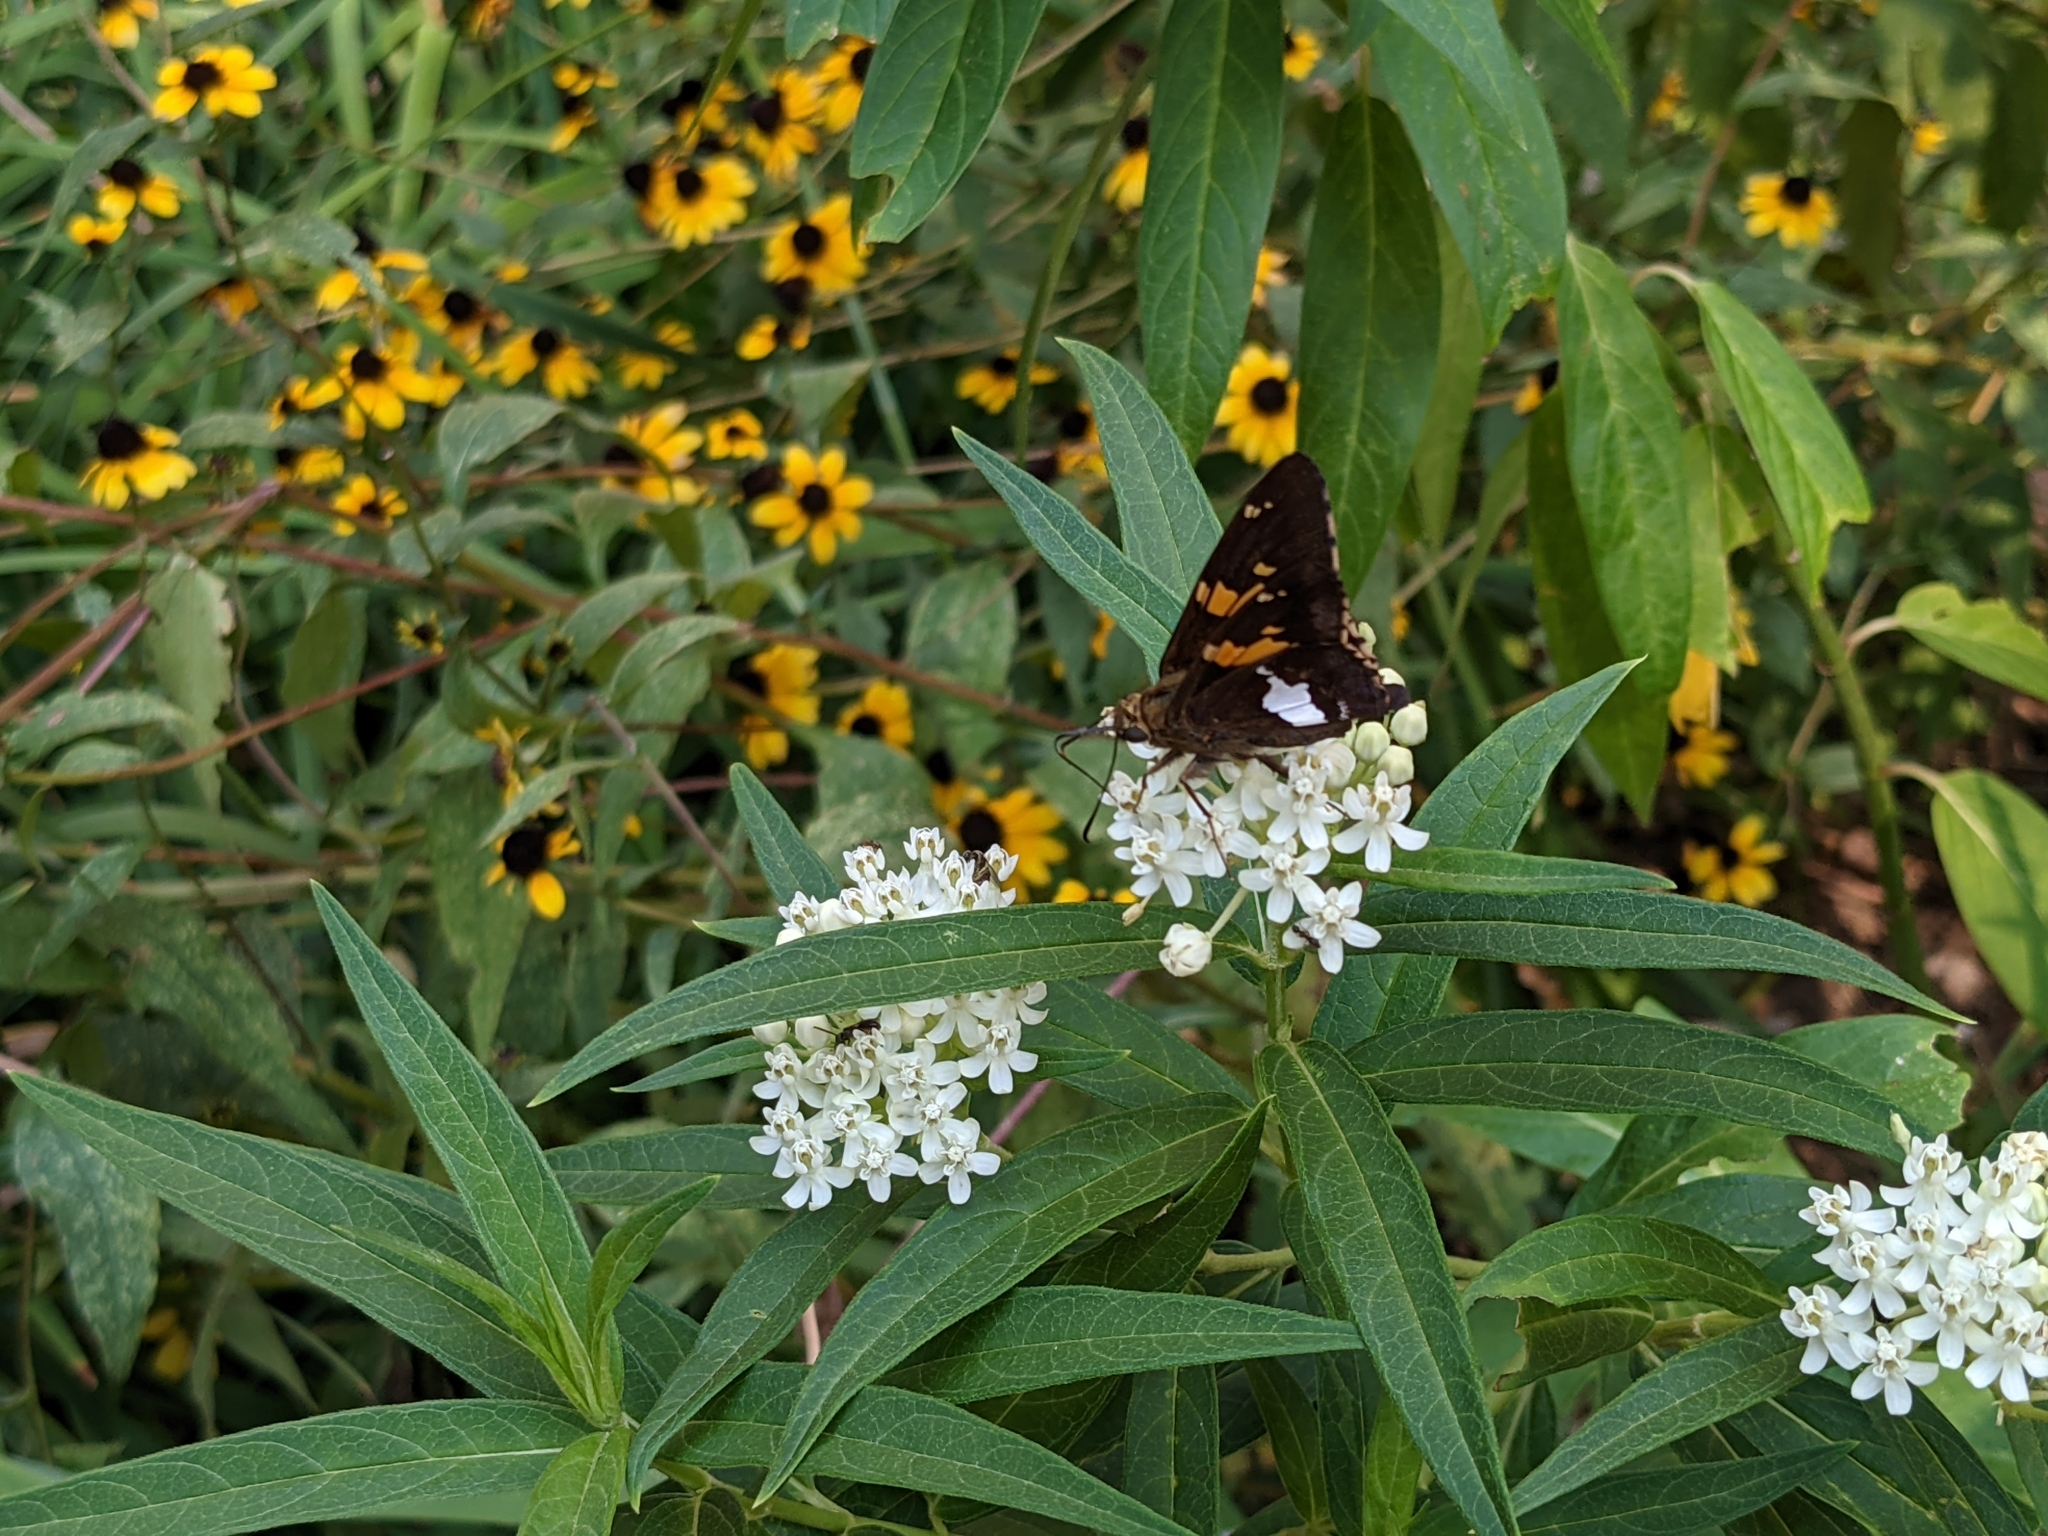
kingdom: Animalia
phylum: Arthropoda
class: Insecta
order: Lepidoptera
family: Hesperiidae
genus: Epargyreus
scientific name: Epargyreus clarus
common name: Silver-spotted skipper
